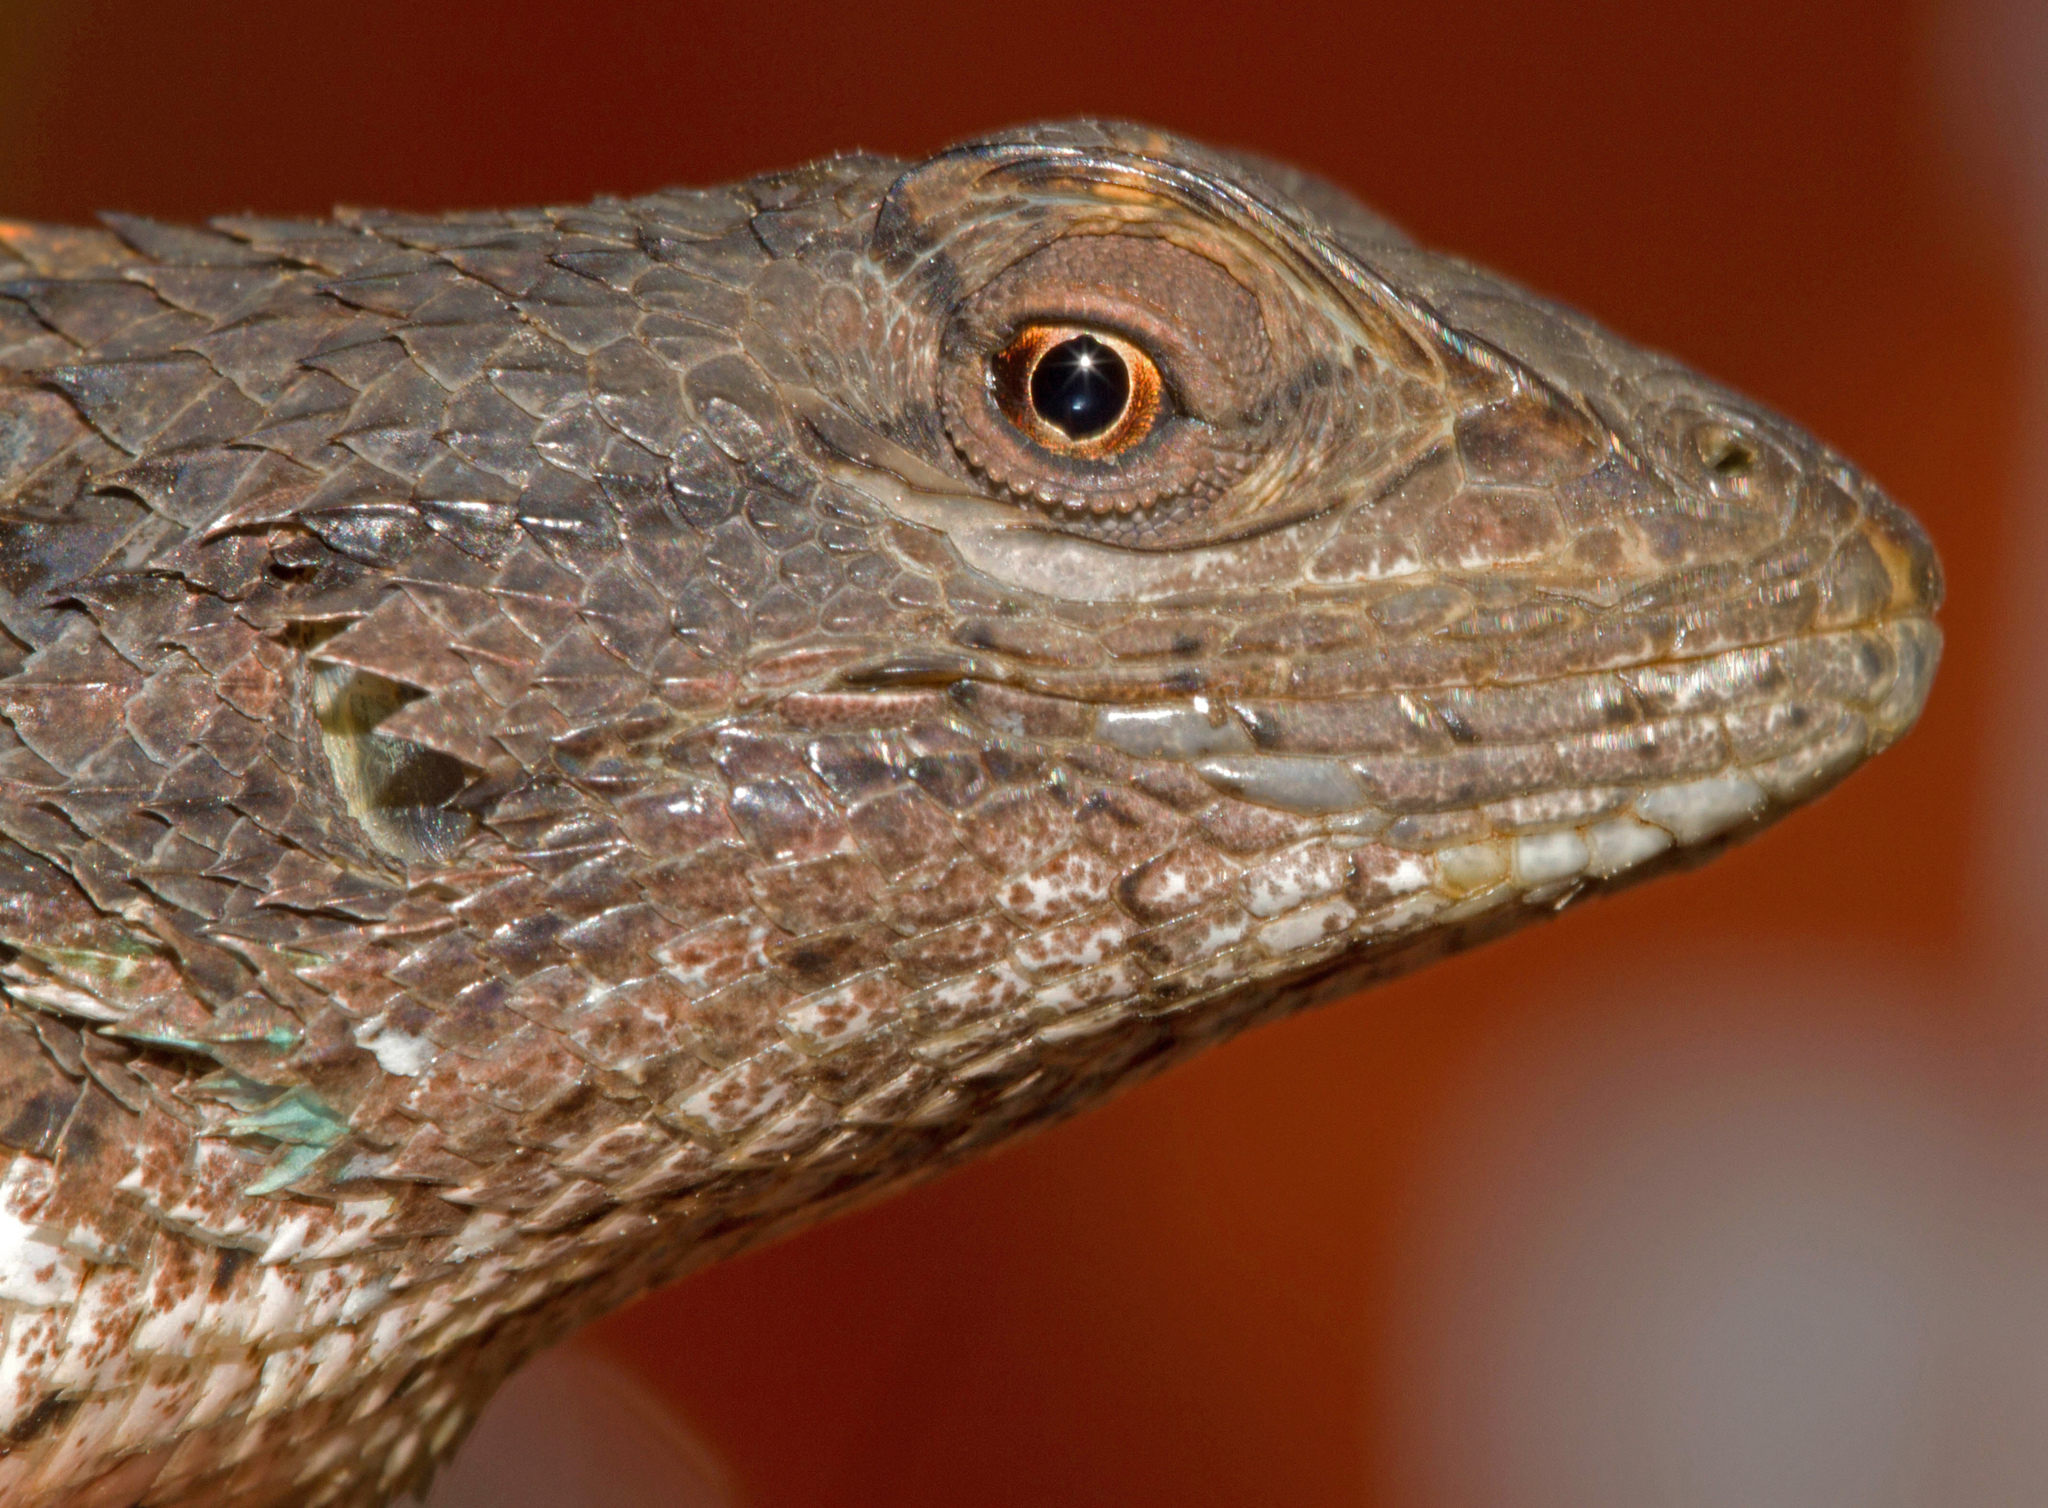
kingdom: Animalia
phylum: Chordata
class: Squamata
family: Phrynosomatidae
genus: Sceloporus
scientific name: Sceloporus olivaceus
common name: Texas spiny lizard
